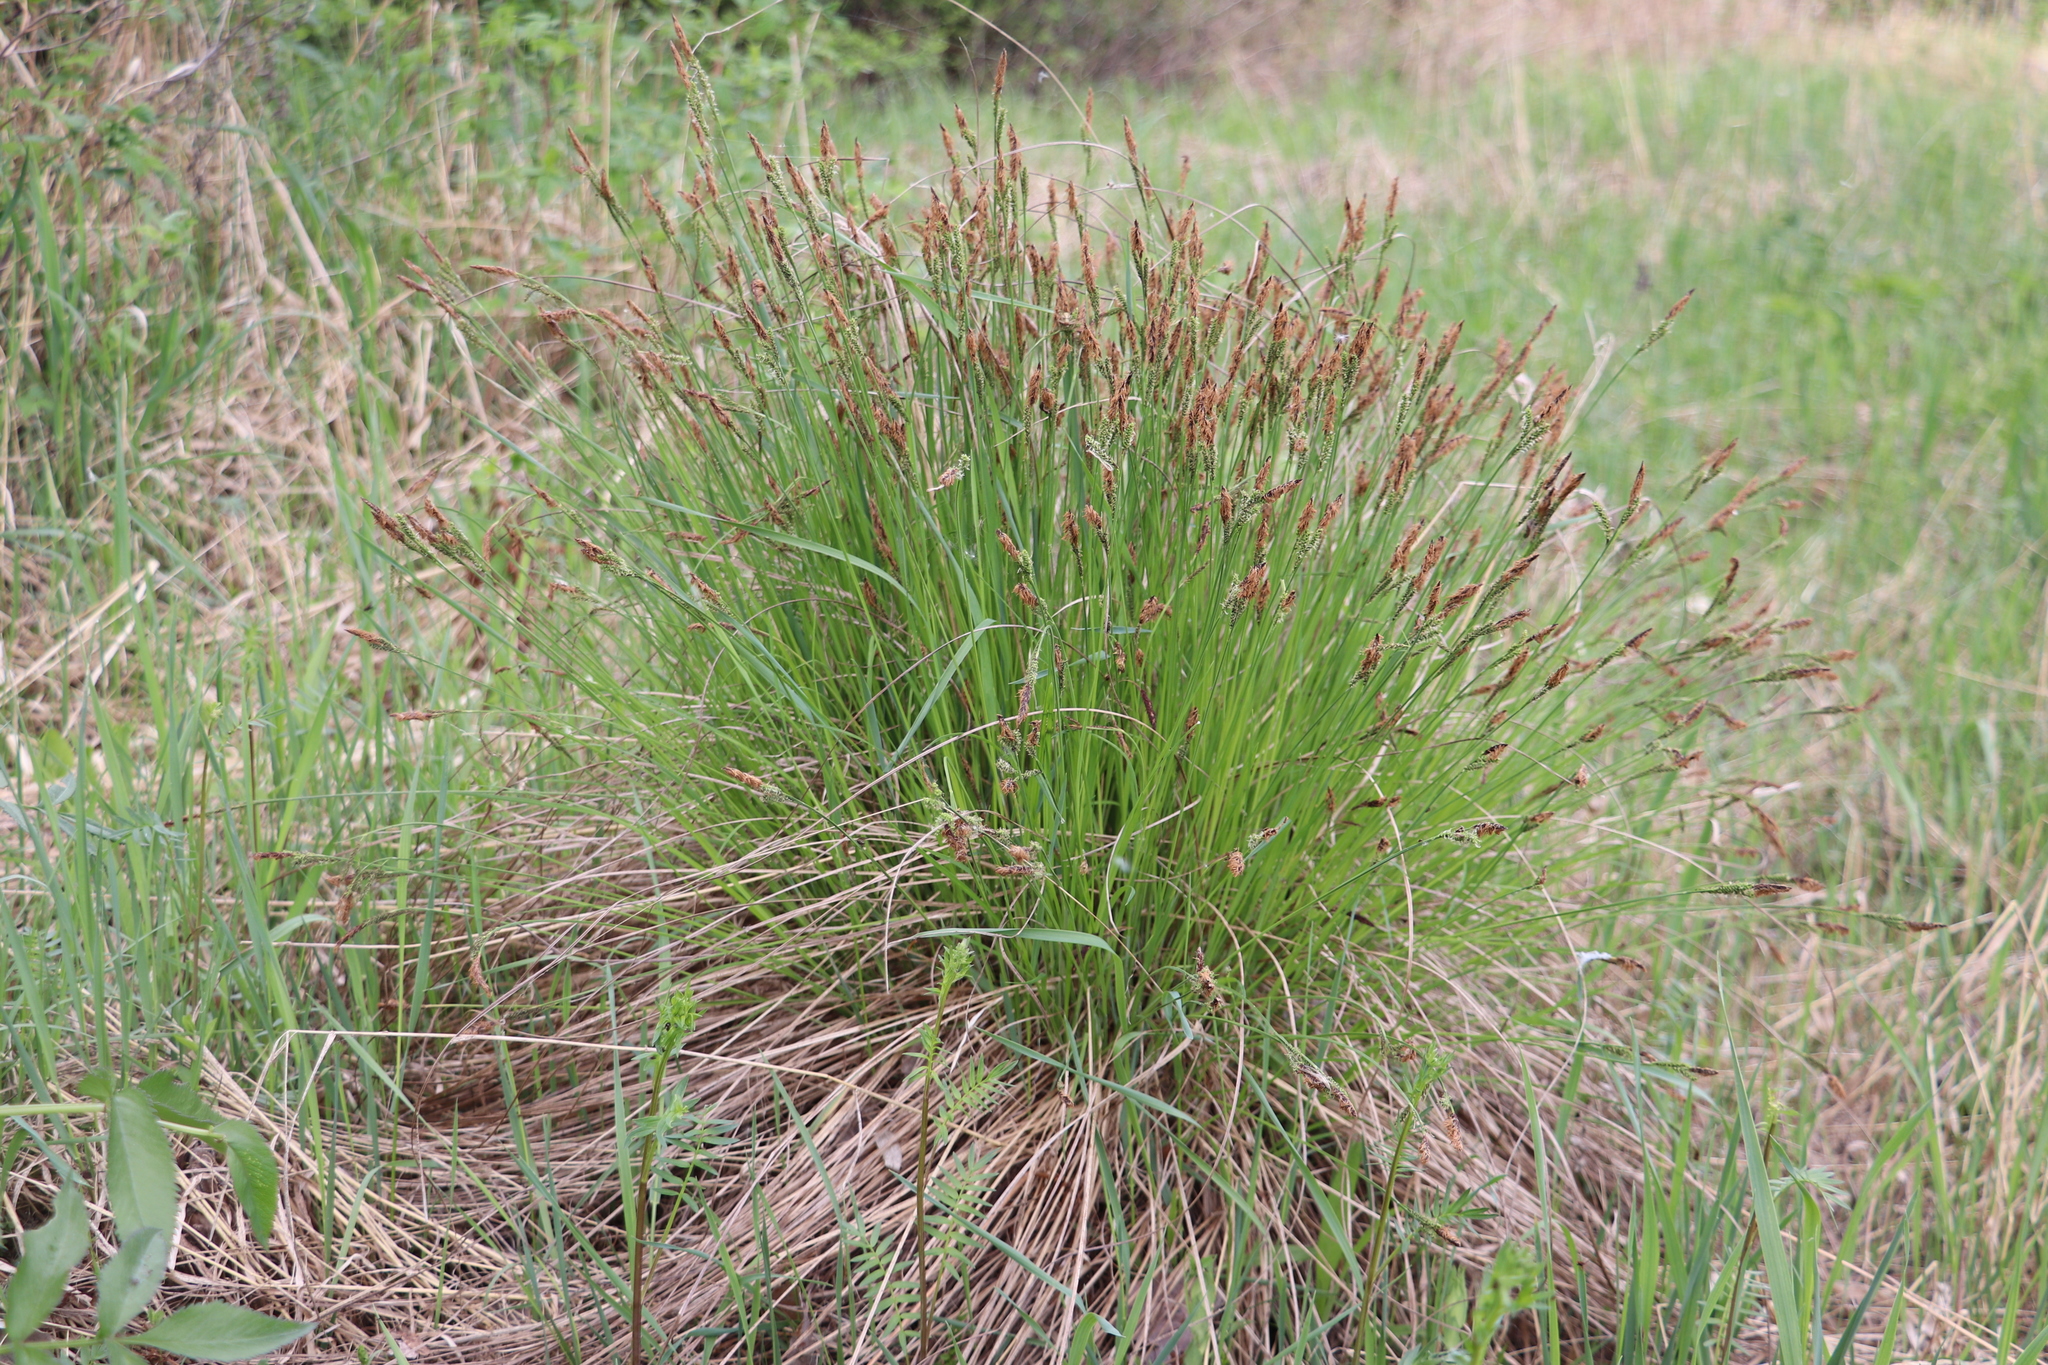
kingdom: Plantae
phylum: Tracheophyta
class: Liliopsida
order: Poales
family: Cyperaceae
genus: Carex
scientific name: Carex cespitosa
